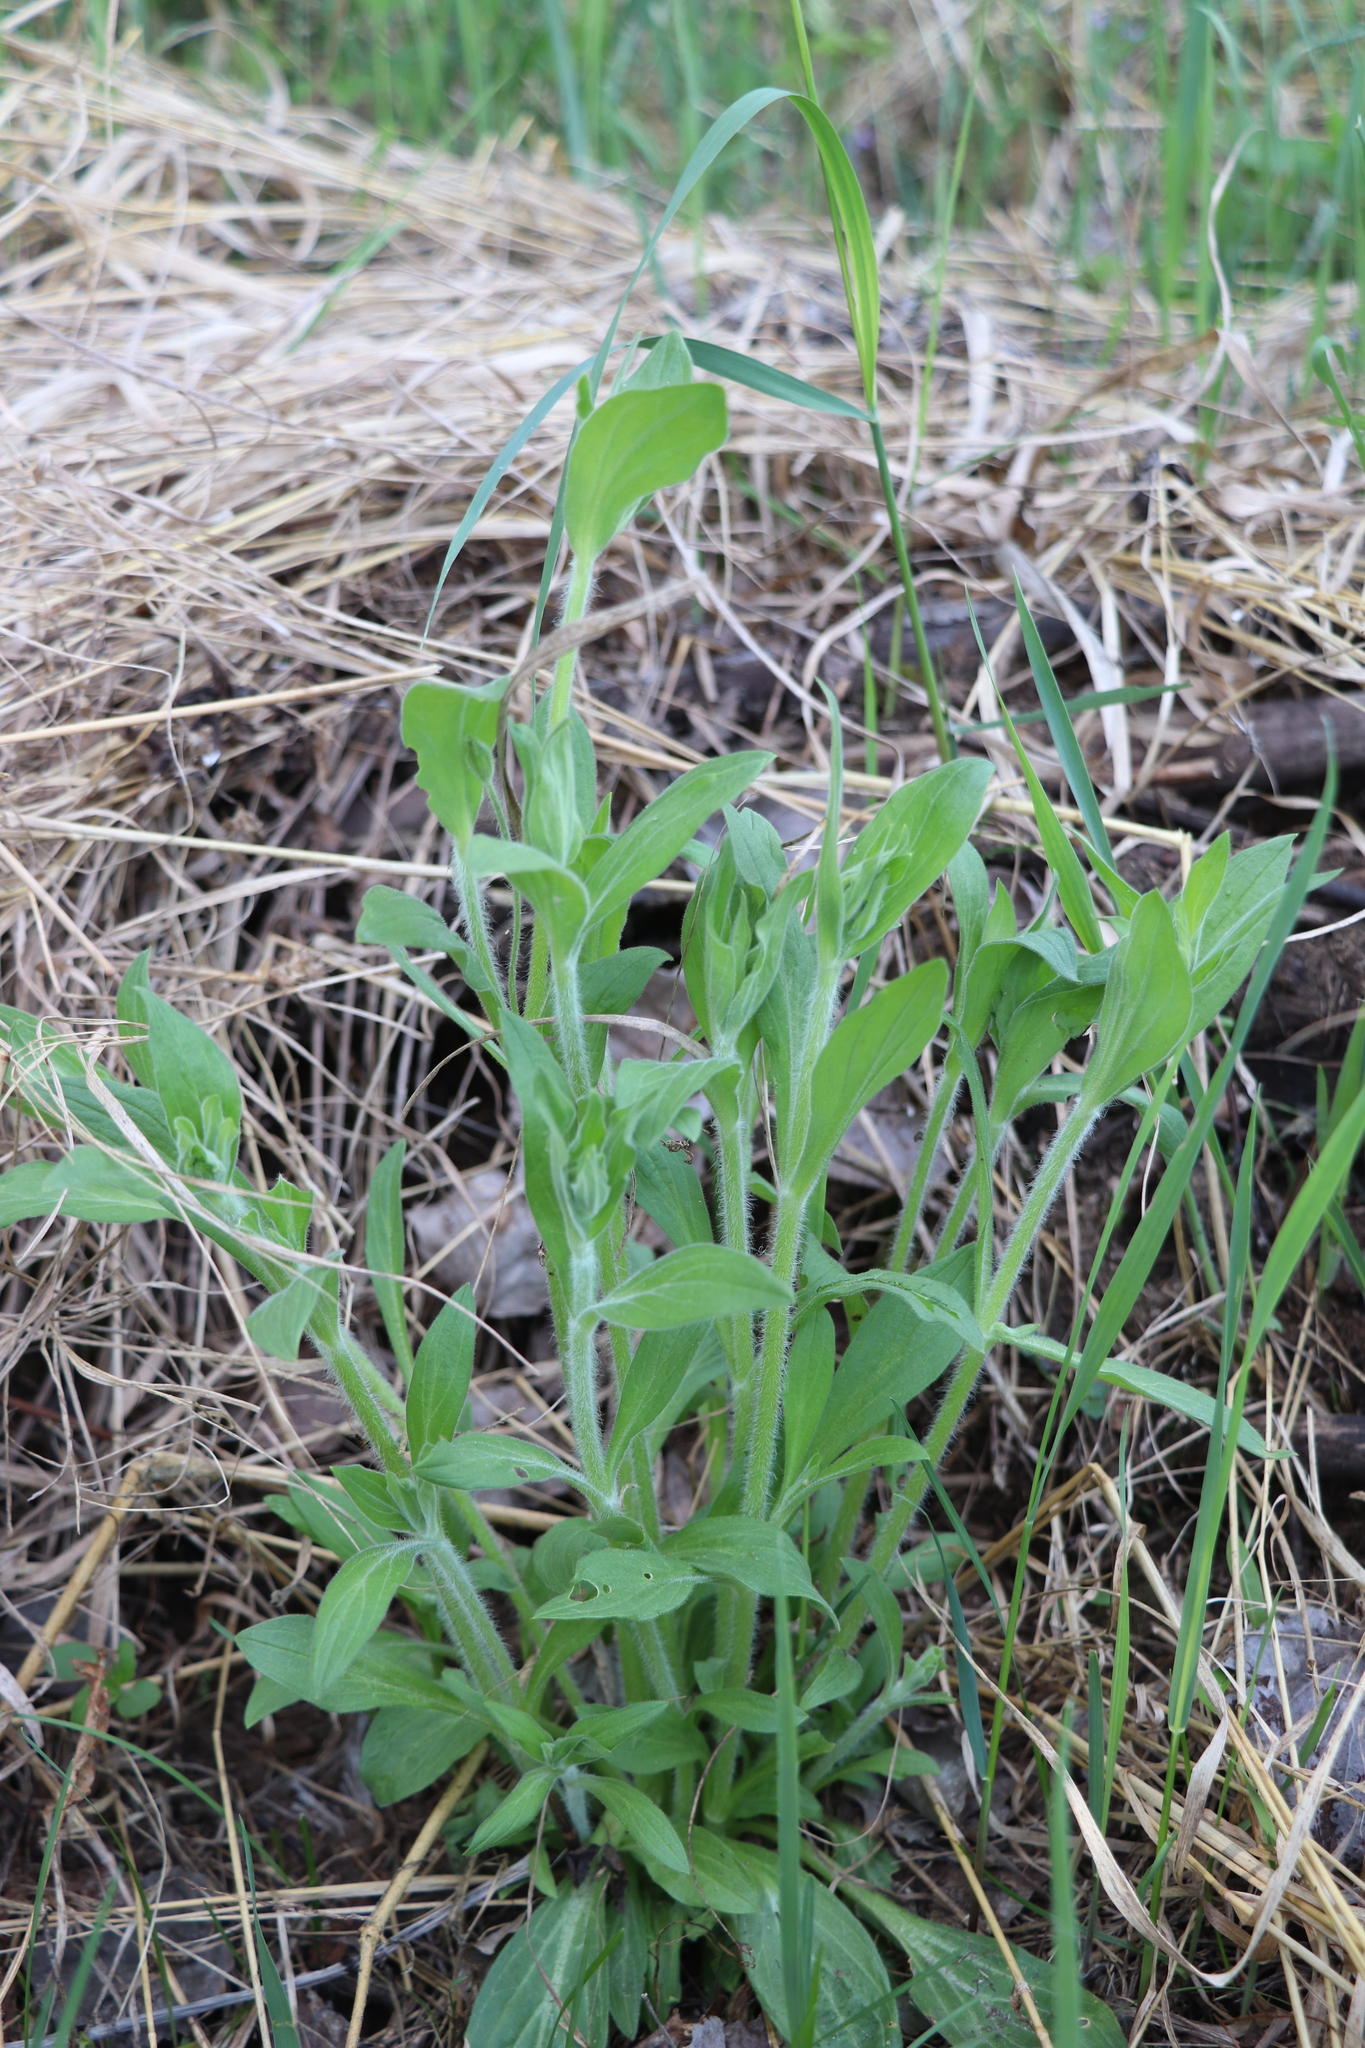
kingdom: Plantae
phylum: Tracheophyta
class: Magnoliopsida
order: Caryophyllales
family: Caryophyllaceae
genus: Silene
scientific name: Silene latifolia
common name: White campion
